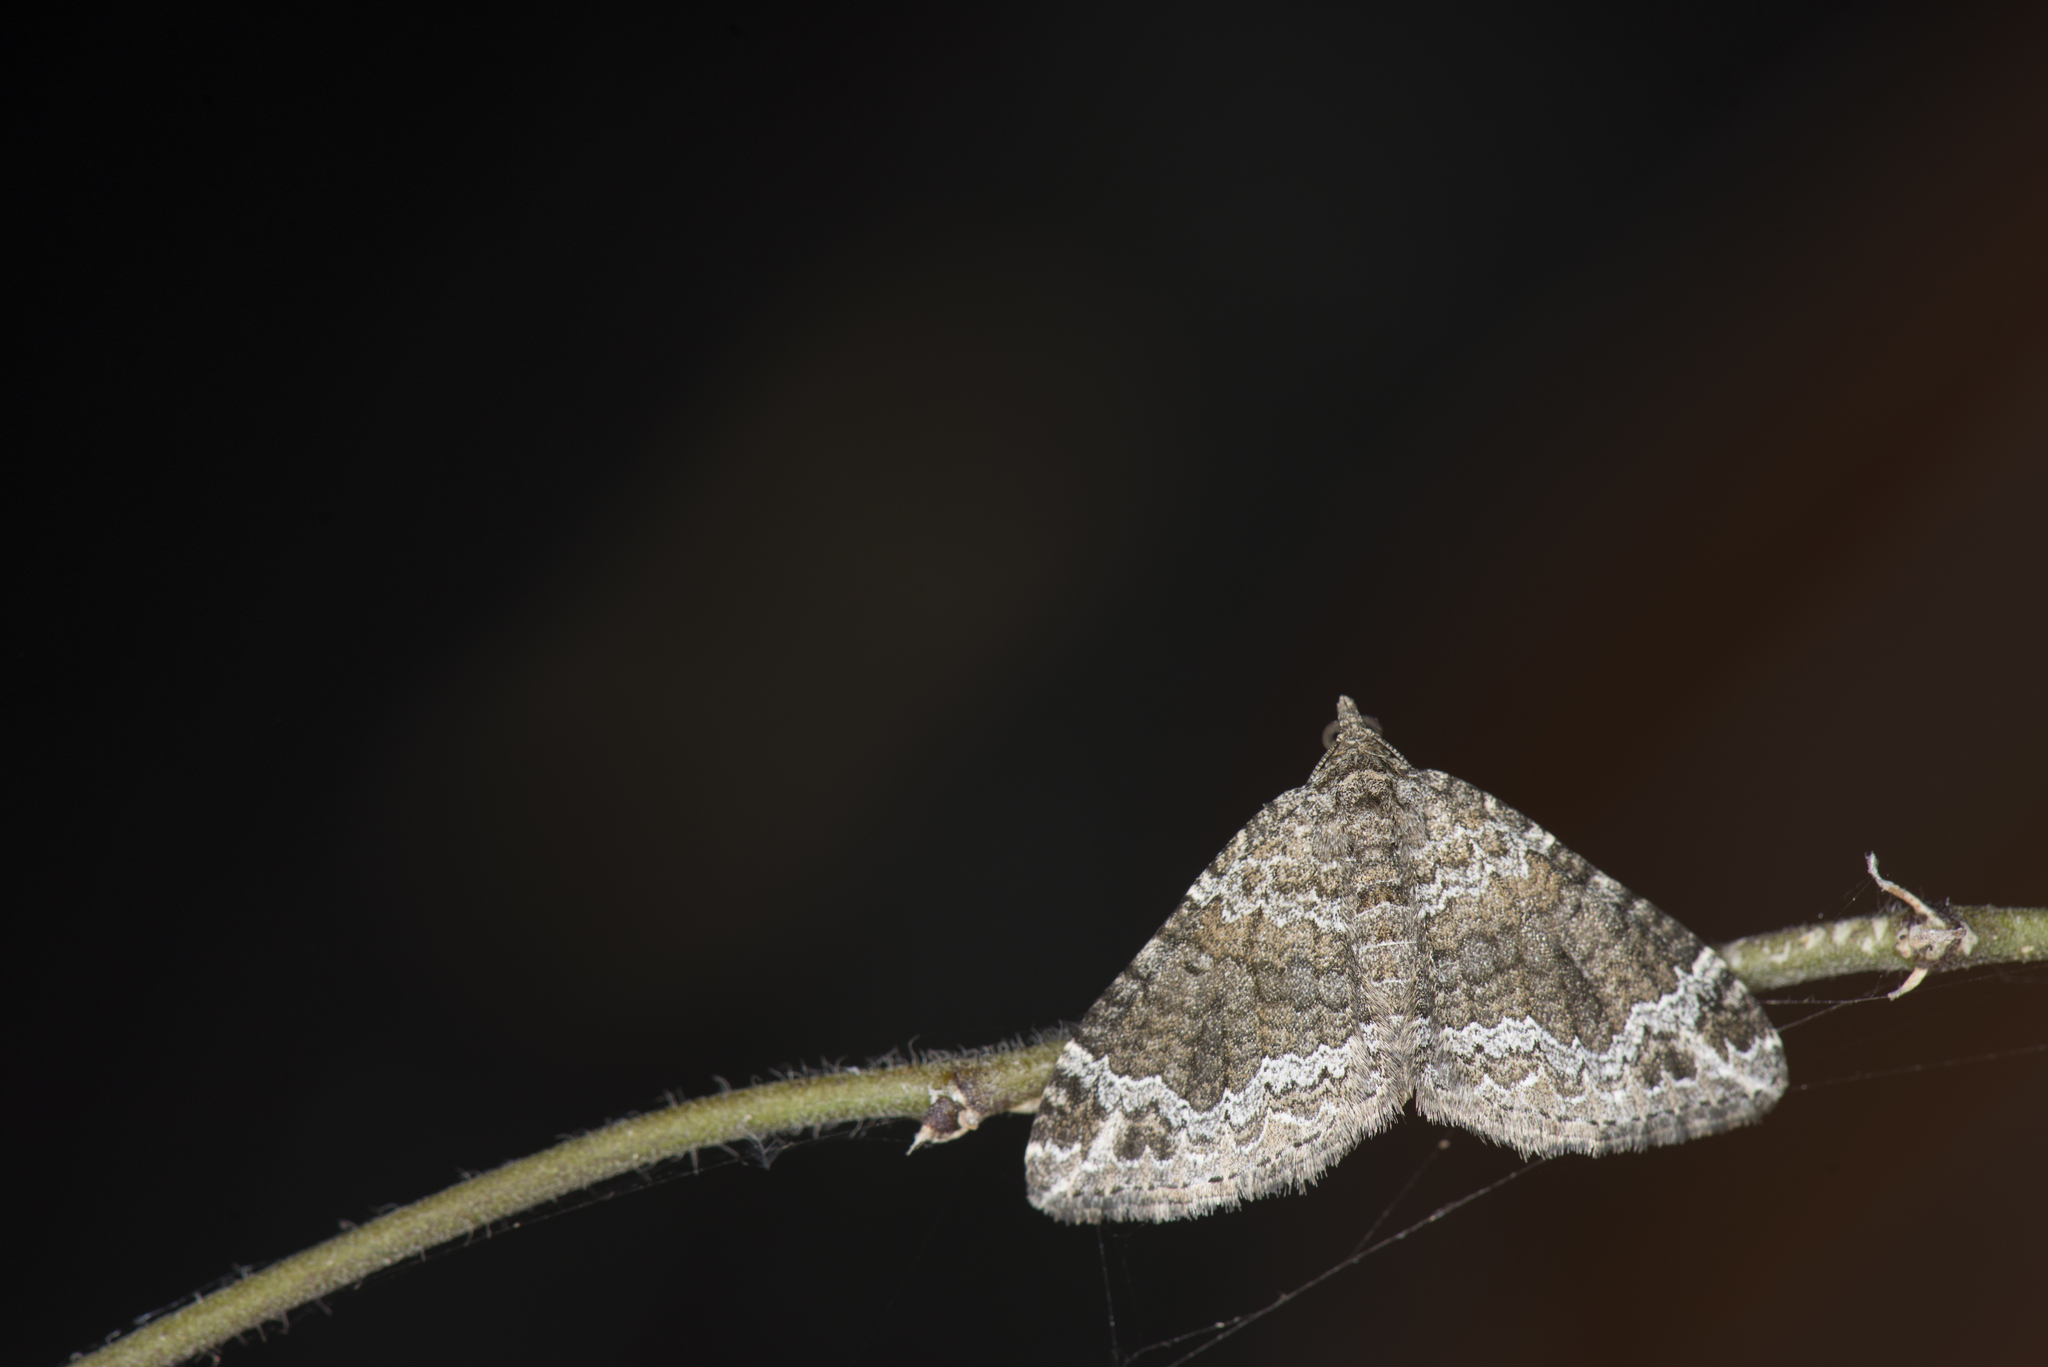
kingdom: Animalia
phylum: Arthropoda
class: Insecta
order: Lepidoptera
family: Geometridae
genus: Xanthorhoe
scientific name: Xanthorhoe saturata
